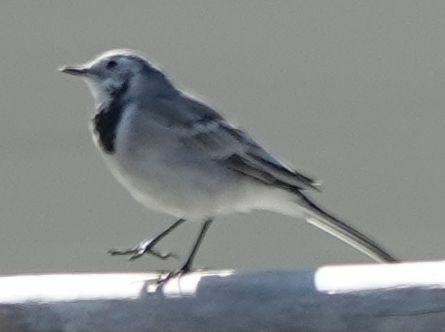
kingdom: Animalia
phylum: Chordata
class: Aves
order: Passeriformes
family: Motacillidae
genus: Motacilla
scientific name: Motacilla alba
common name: White wagtail
